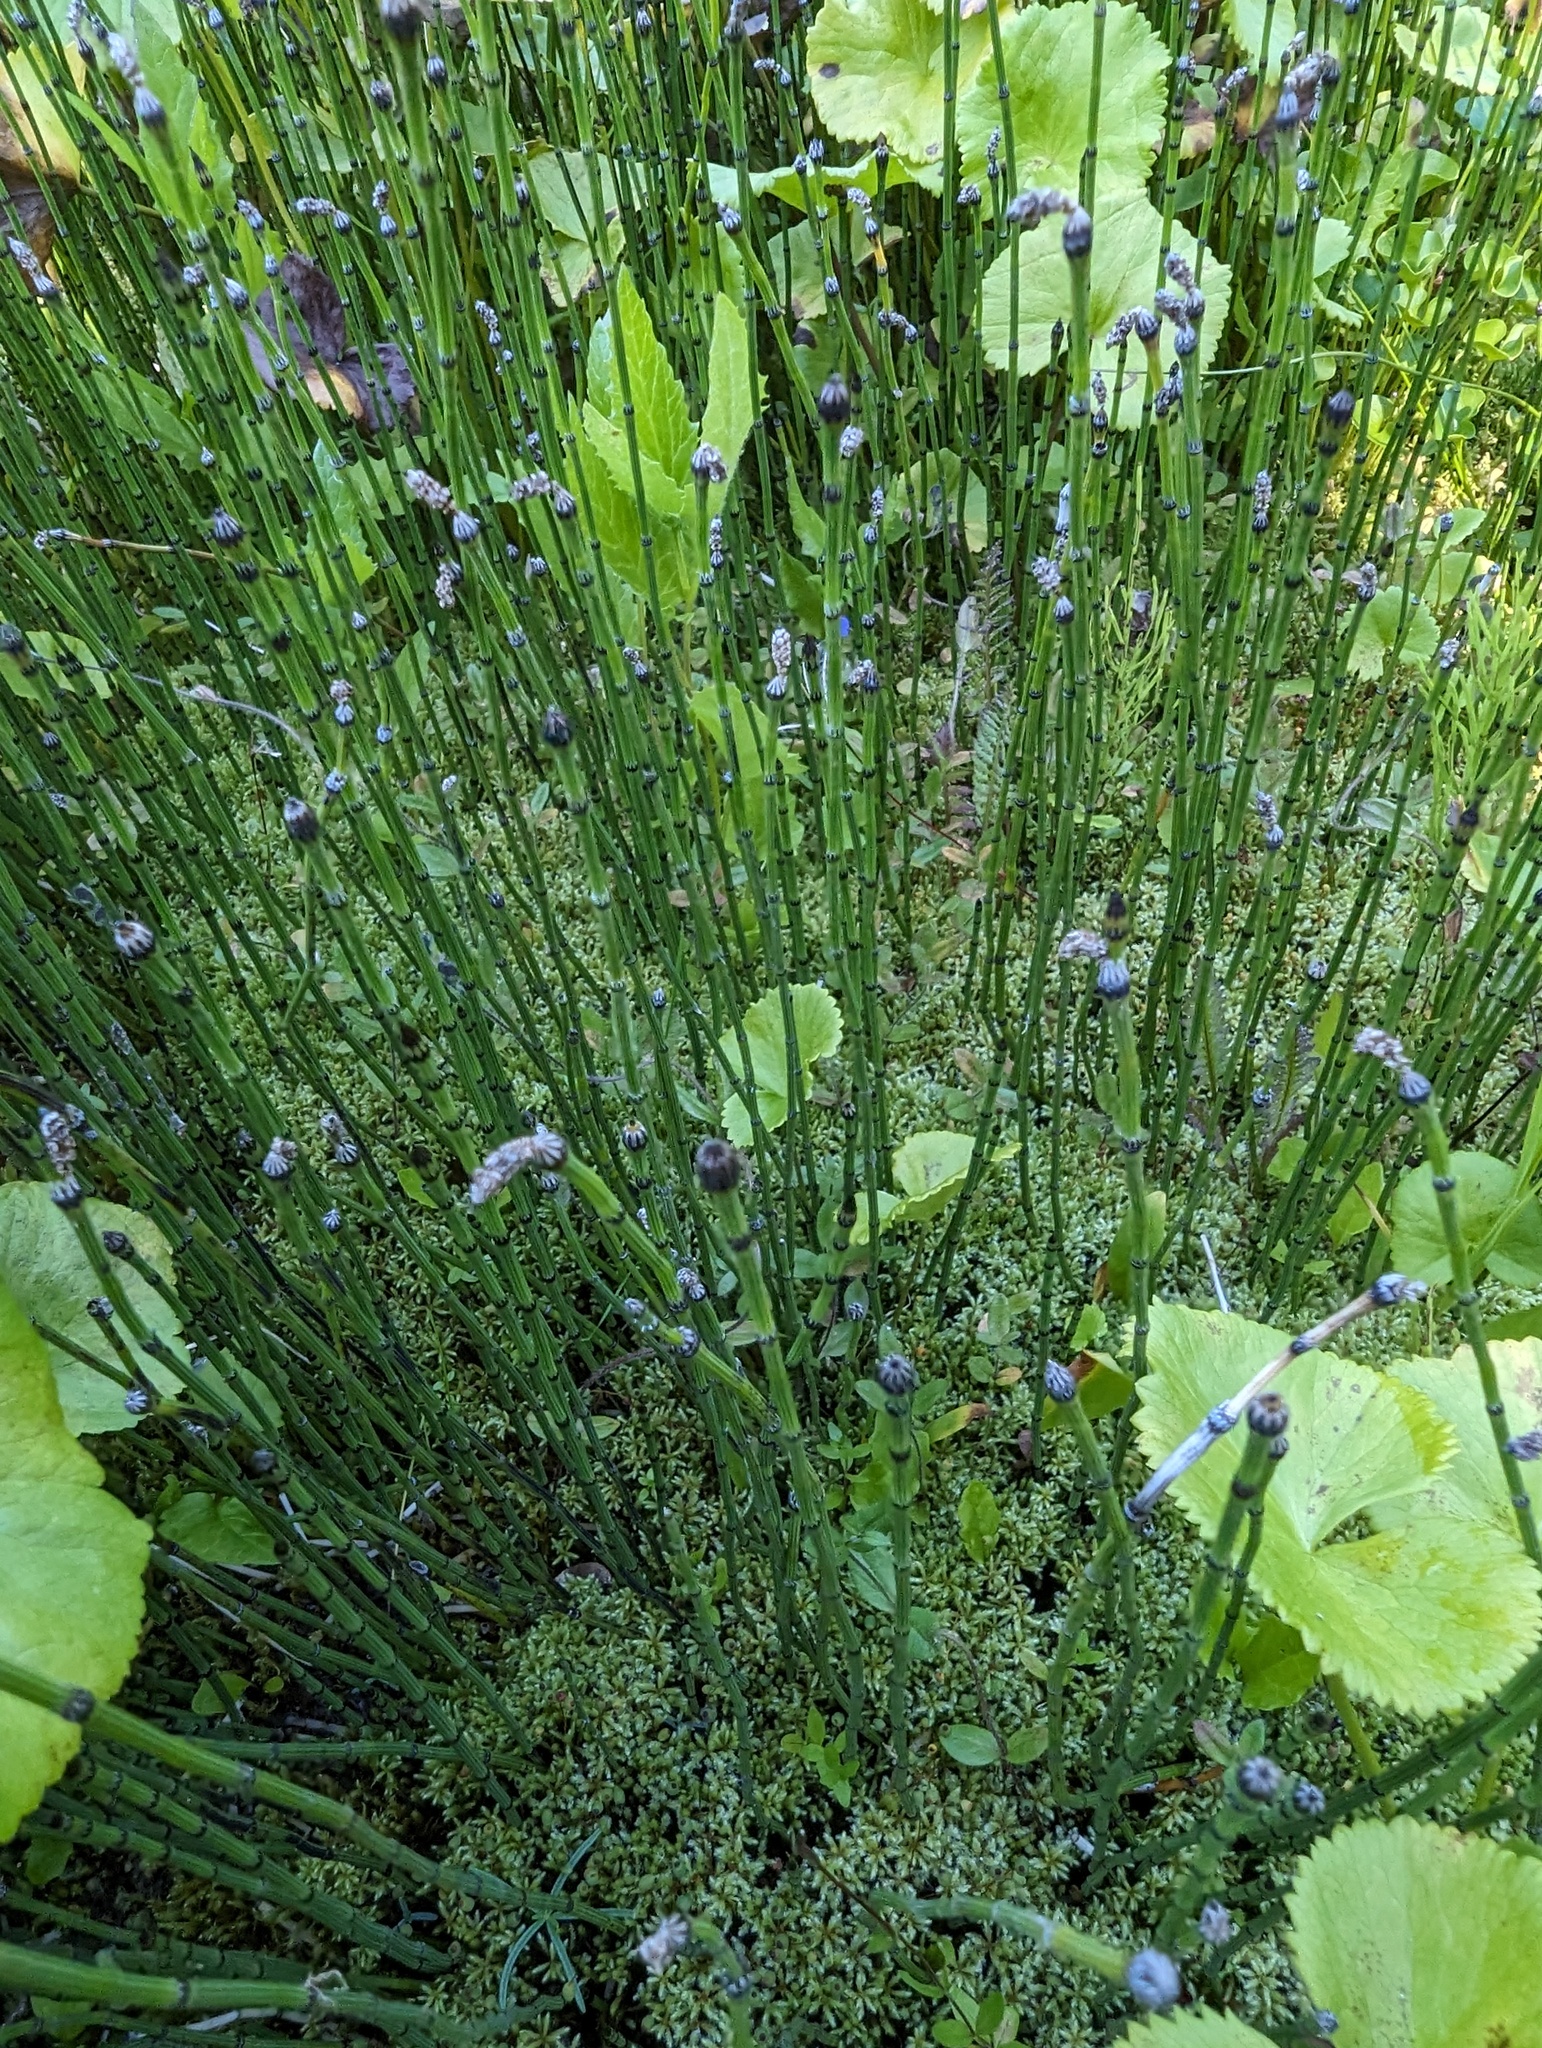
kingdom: Plantae
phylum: Tracheophyta
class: Polypodiopsida
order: Equisetales
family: Equisetaceae
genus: Equisetum
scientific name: Equisetum variegatum
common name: Variegated horsetail
